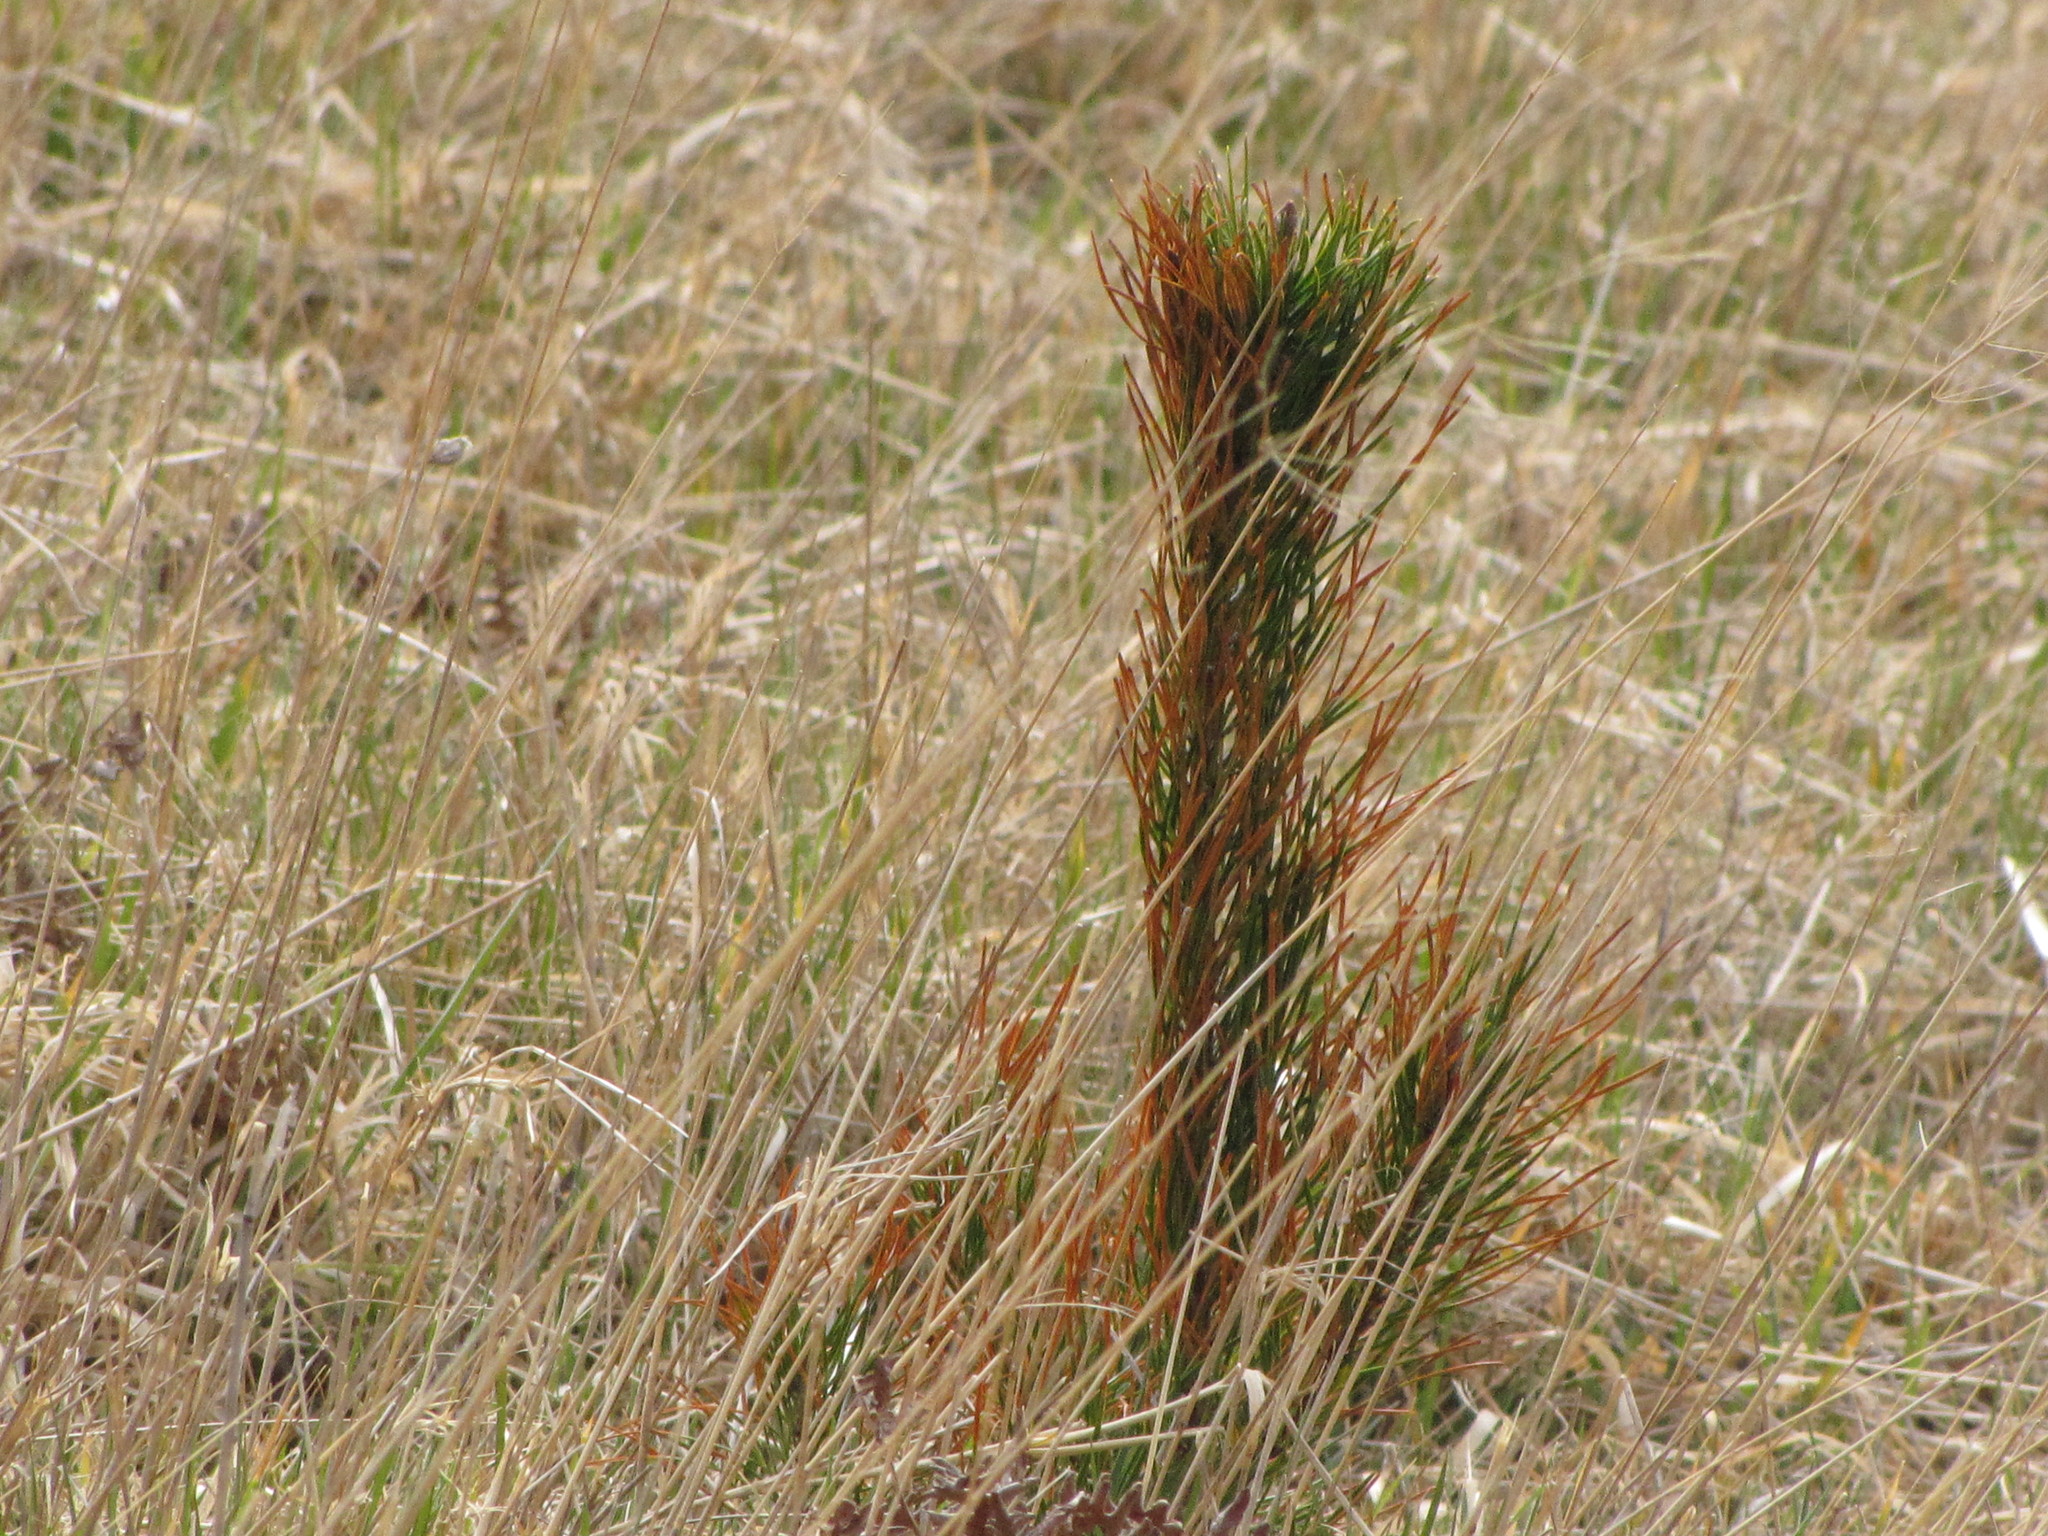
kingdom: Plantae
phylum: Tracheophyta
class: Pinopsida
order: Pinales
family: Pinaceae
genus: Pinus
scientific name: Pinus contorta
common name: Lodgepole pine
